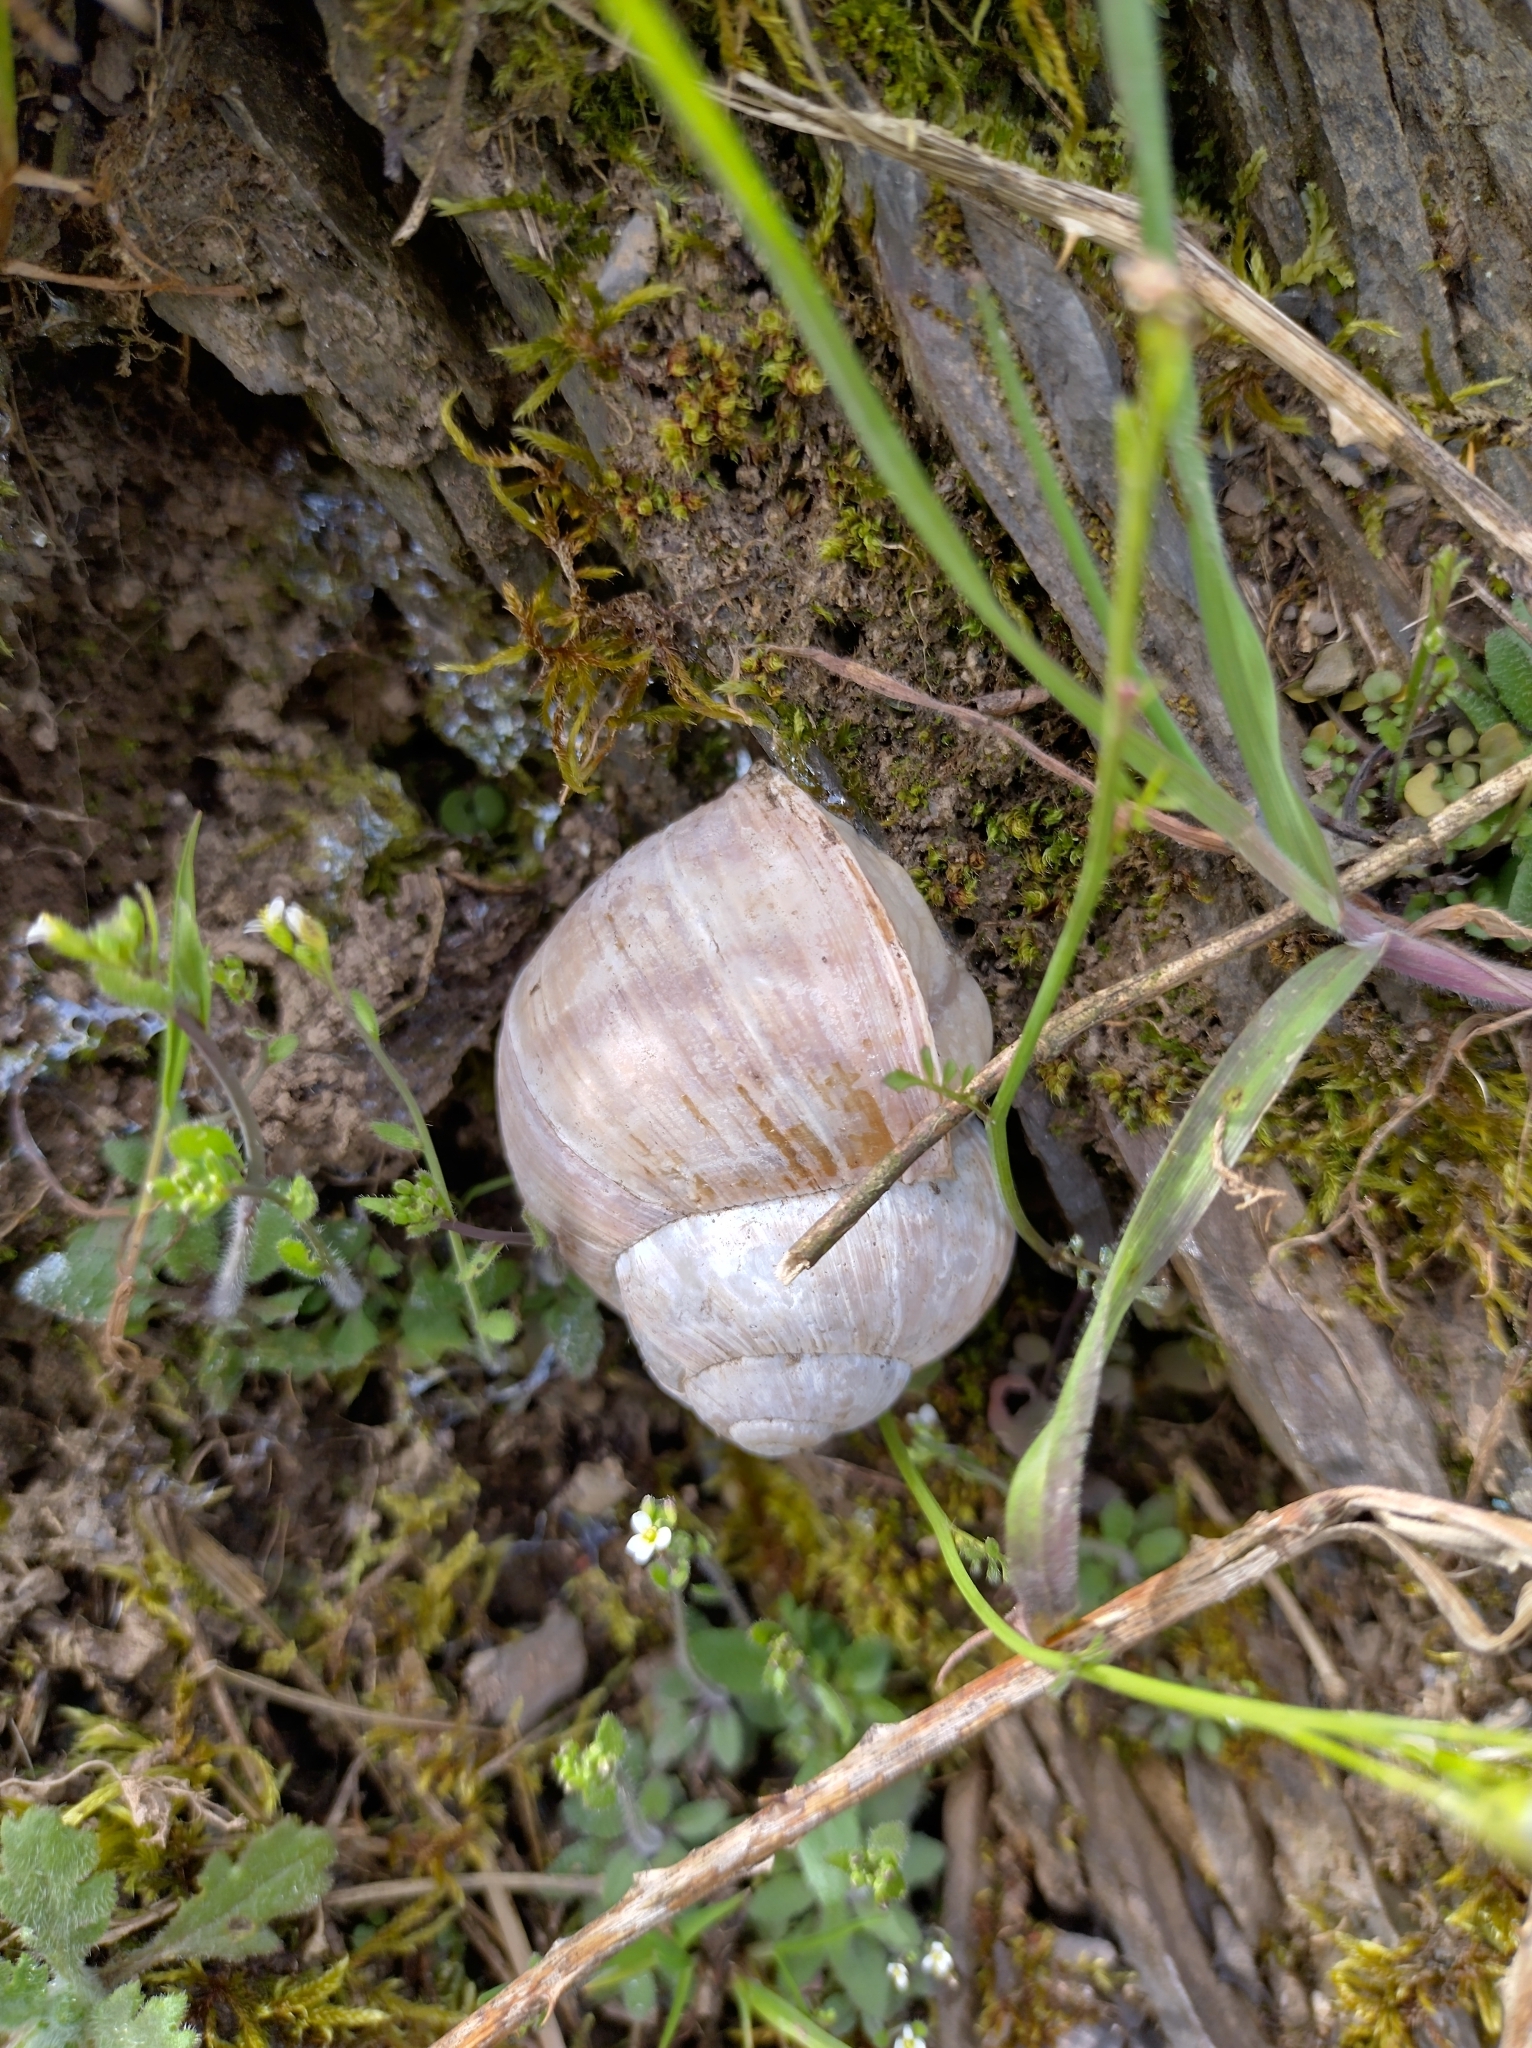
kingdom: Animalia
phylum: Mollusca
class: Gastropoda
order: Stylommatophora
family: Helicidae
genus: Helix
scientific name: Helix pomatia
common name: Roman snail
